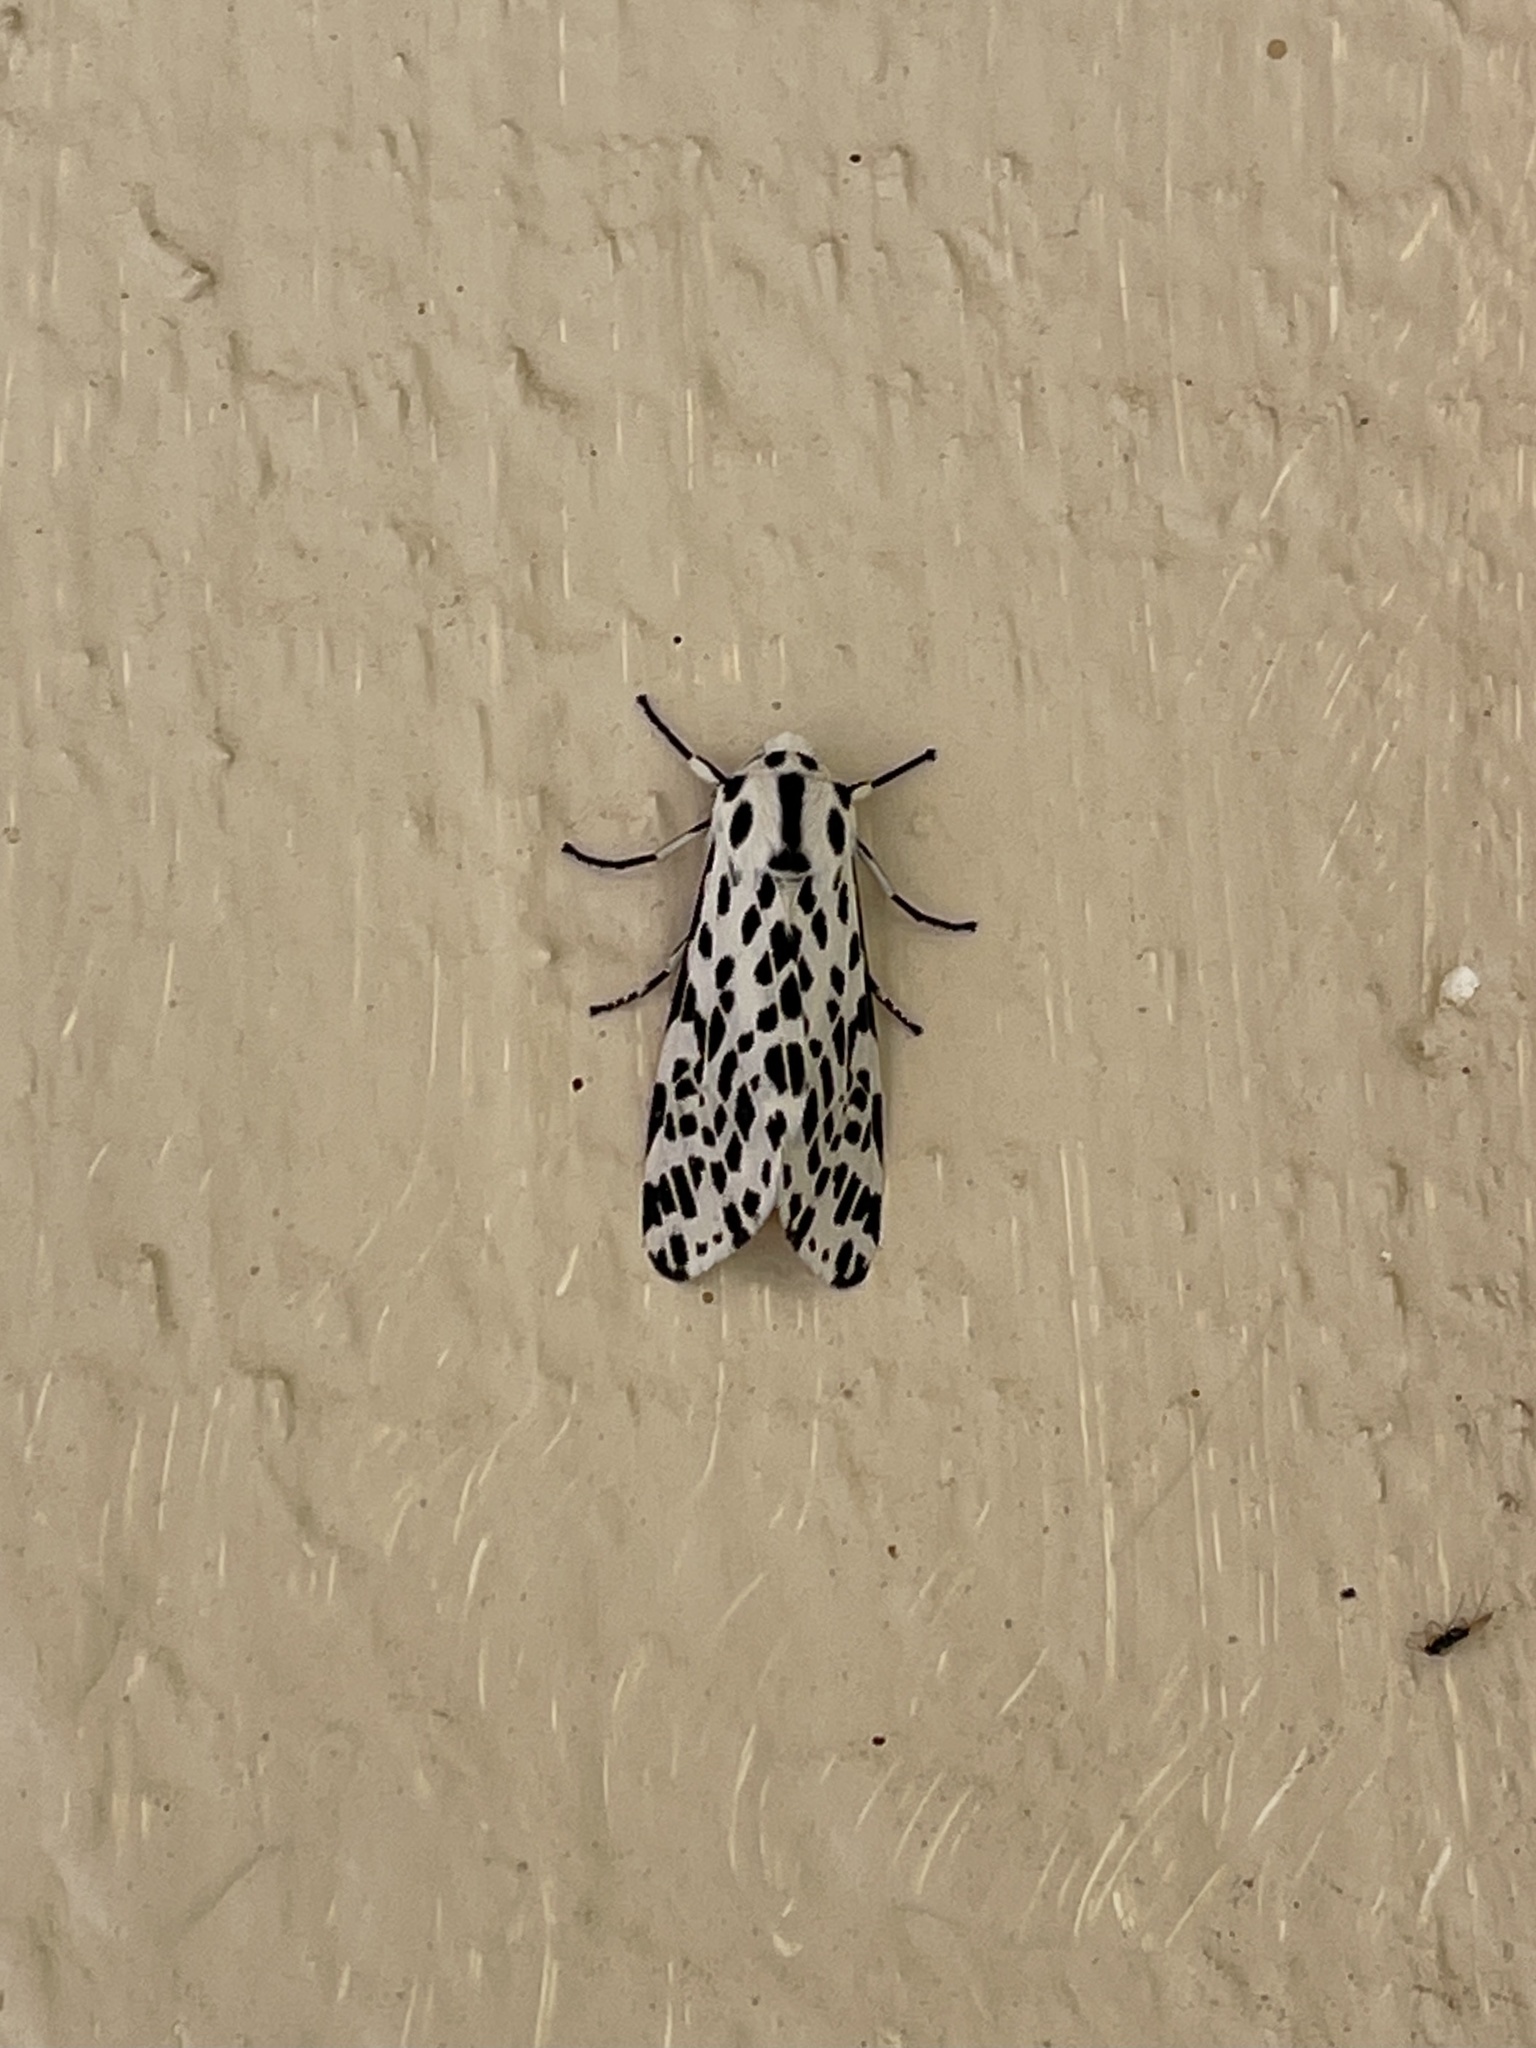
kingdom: Animalia
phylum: Arthropoda
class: Insecta
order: Lepidoptera
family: Erebidae
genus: Hypercompe
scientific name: Hypercompe permaculata
